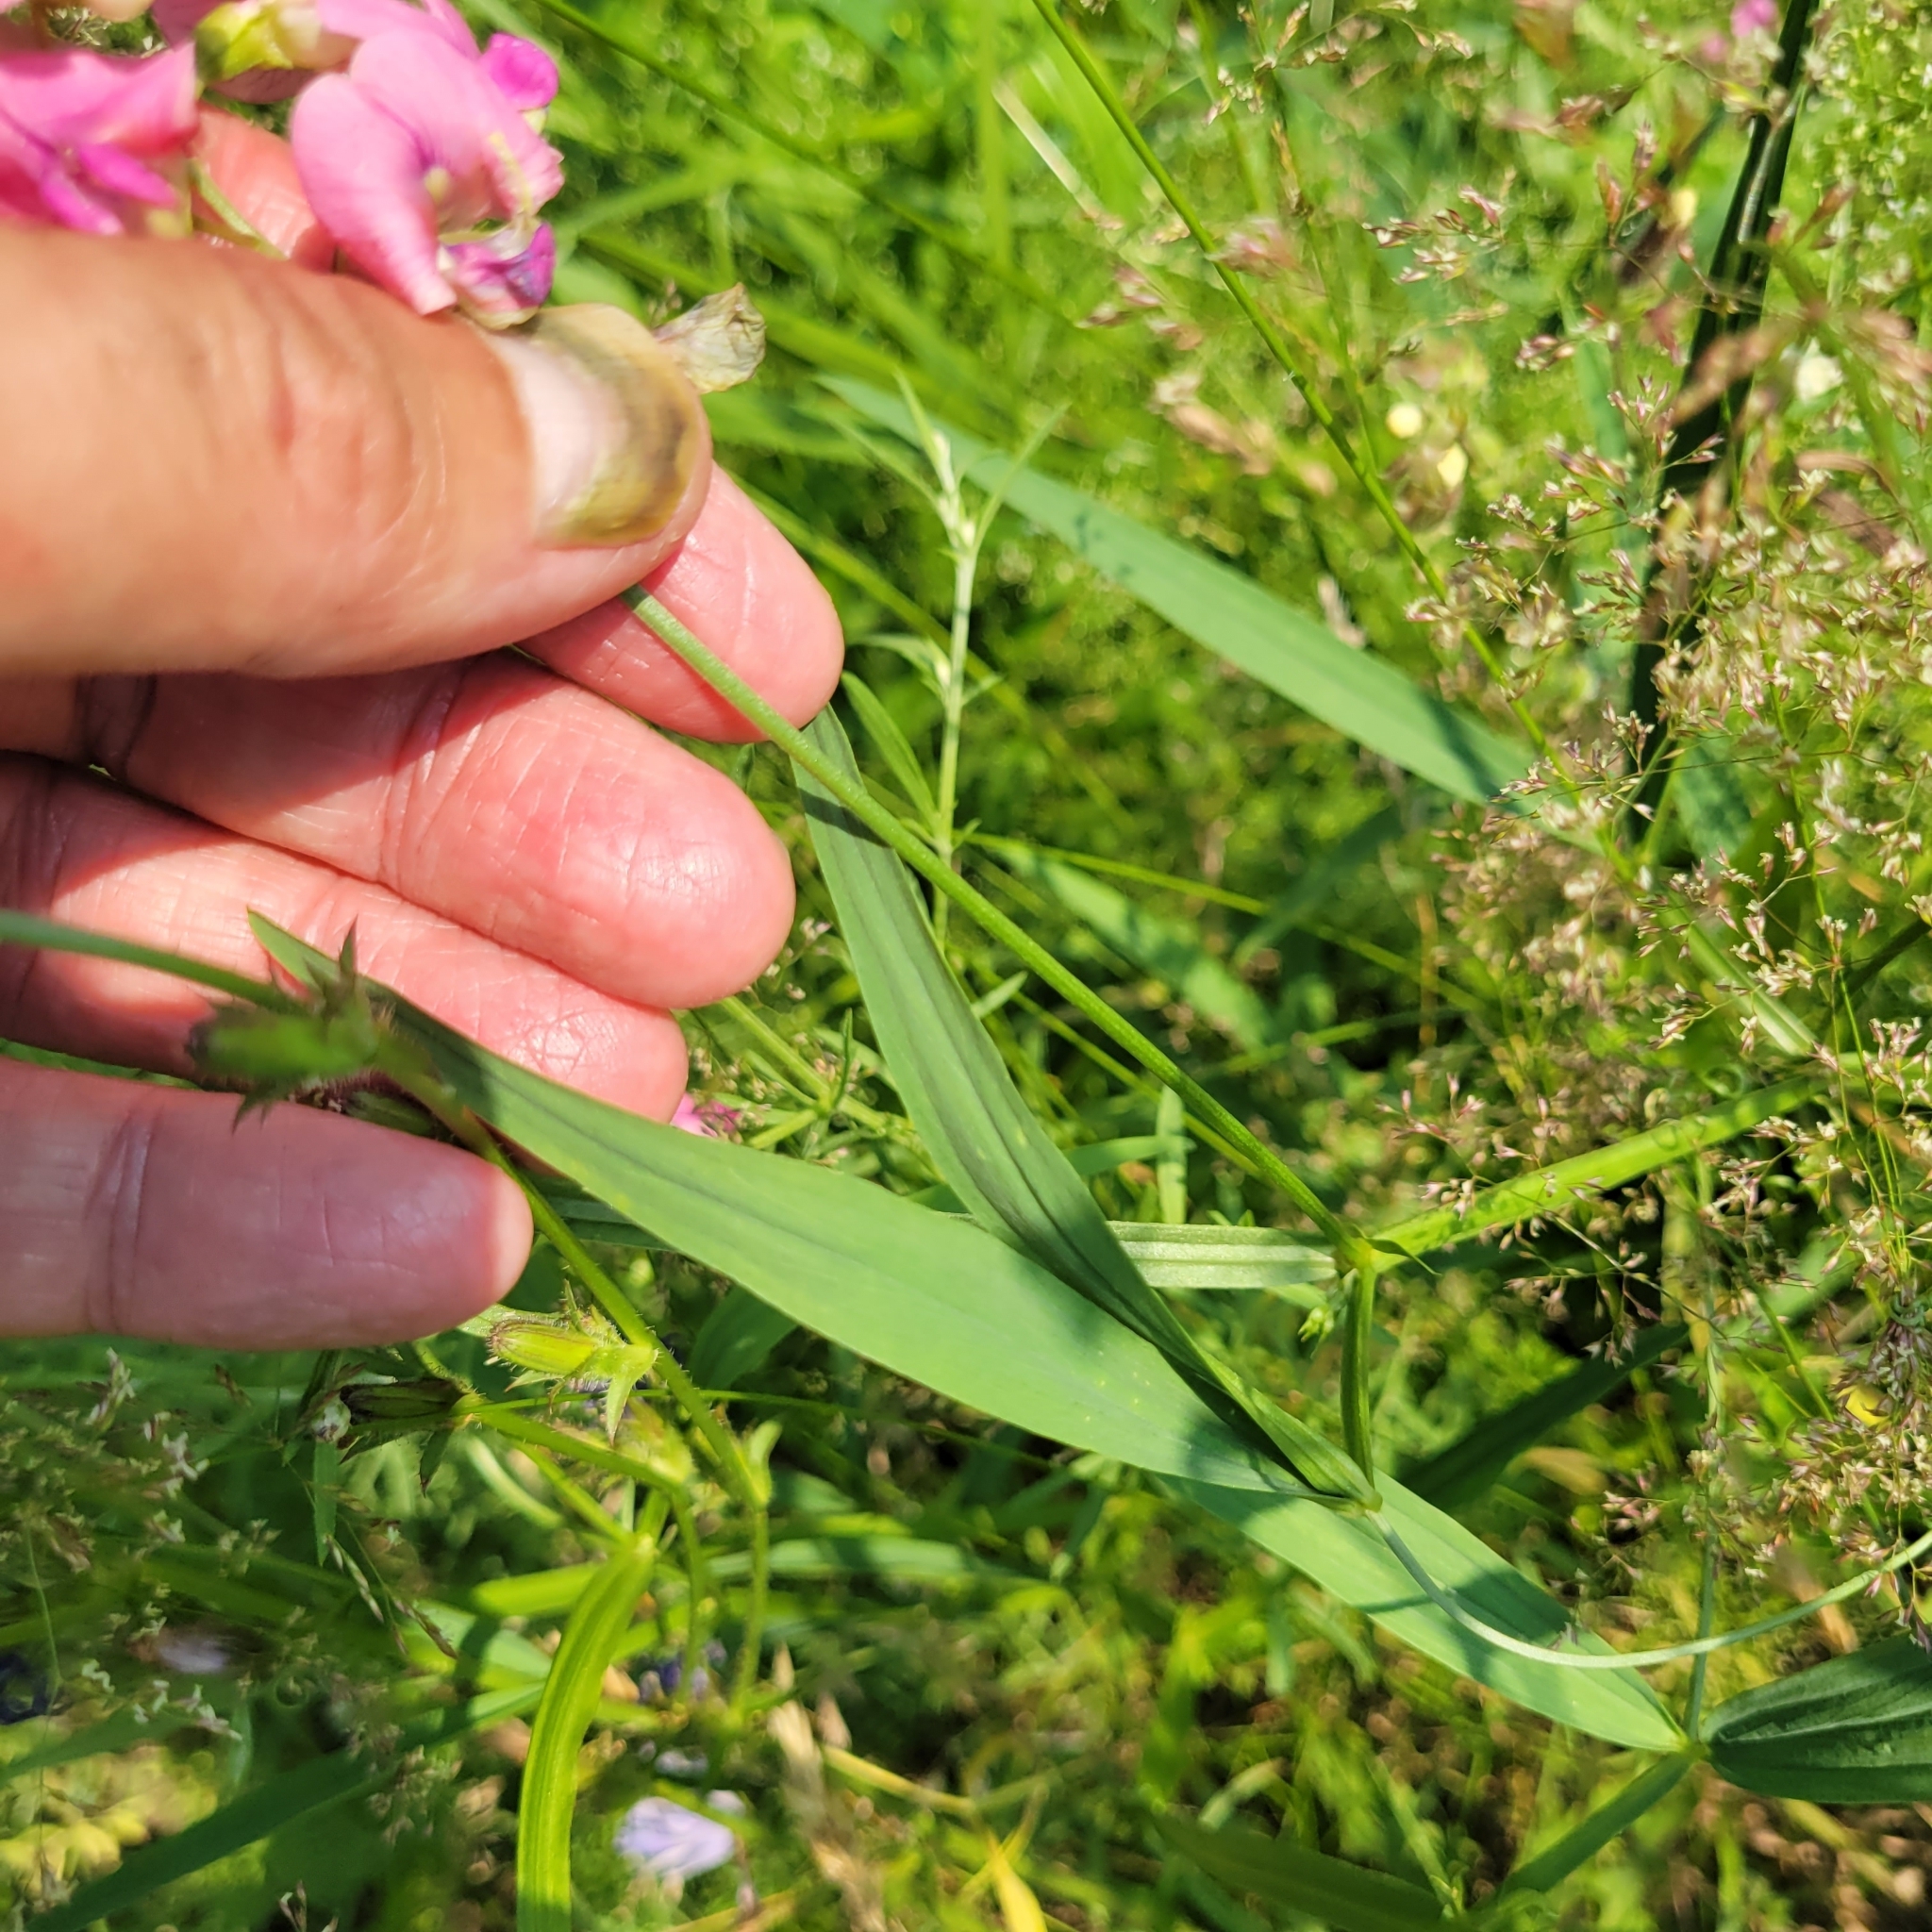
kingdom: Plantae
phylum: Tracheophyta
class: Magnoliopsida
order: Fabales
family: Fabaceae
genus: Lathyrus
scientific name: Lathyrus sylvestris
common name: Flat pea
